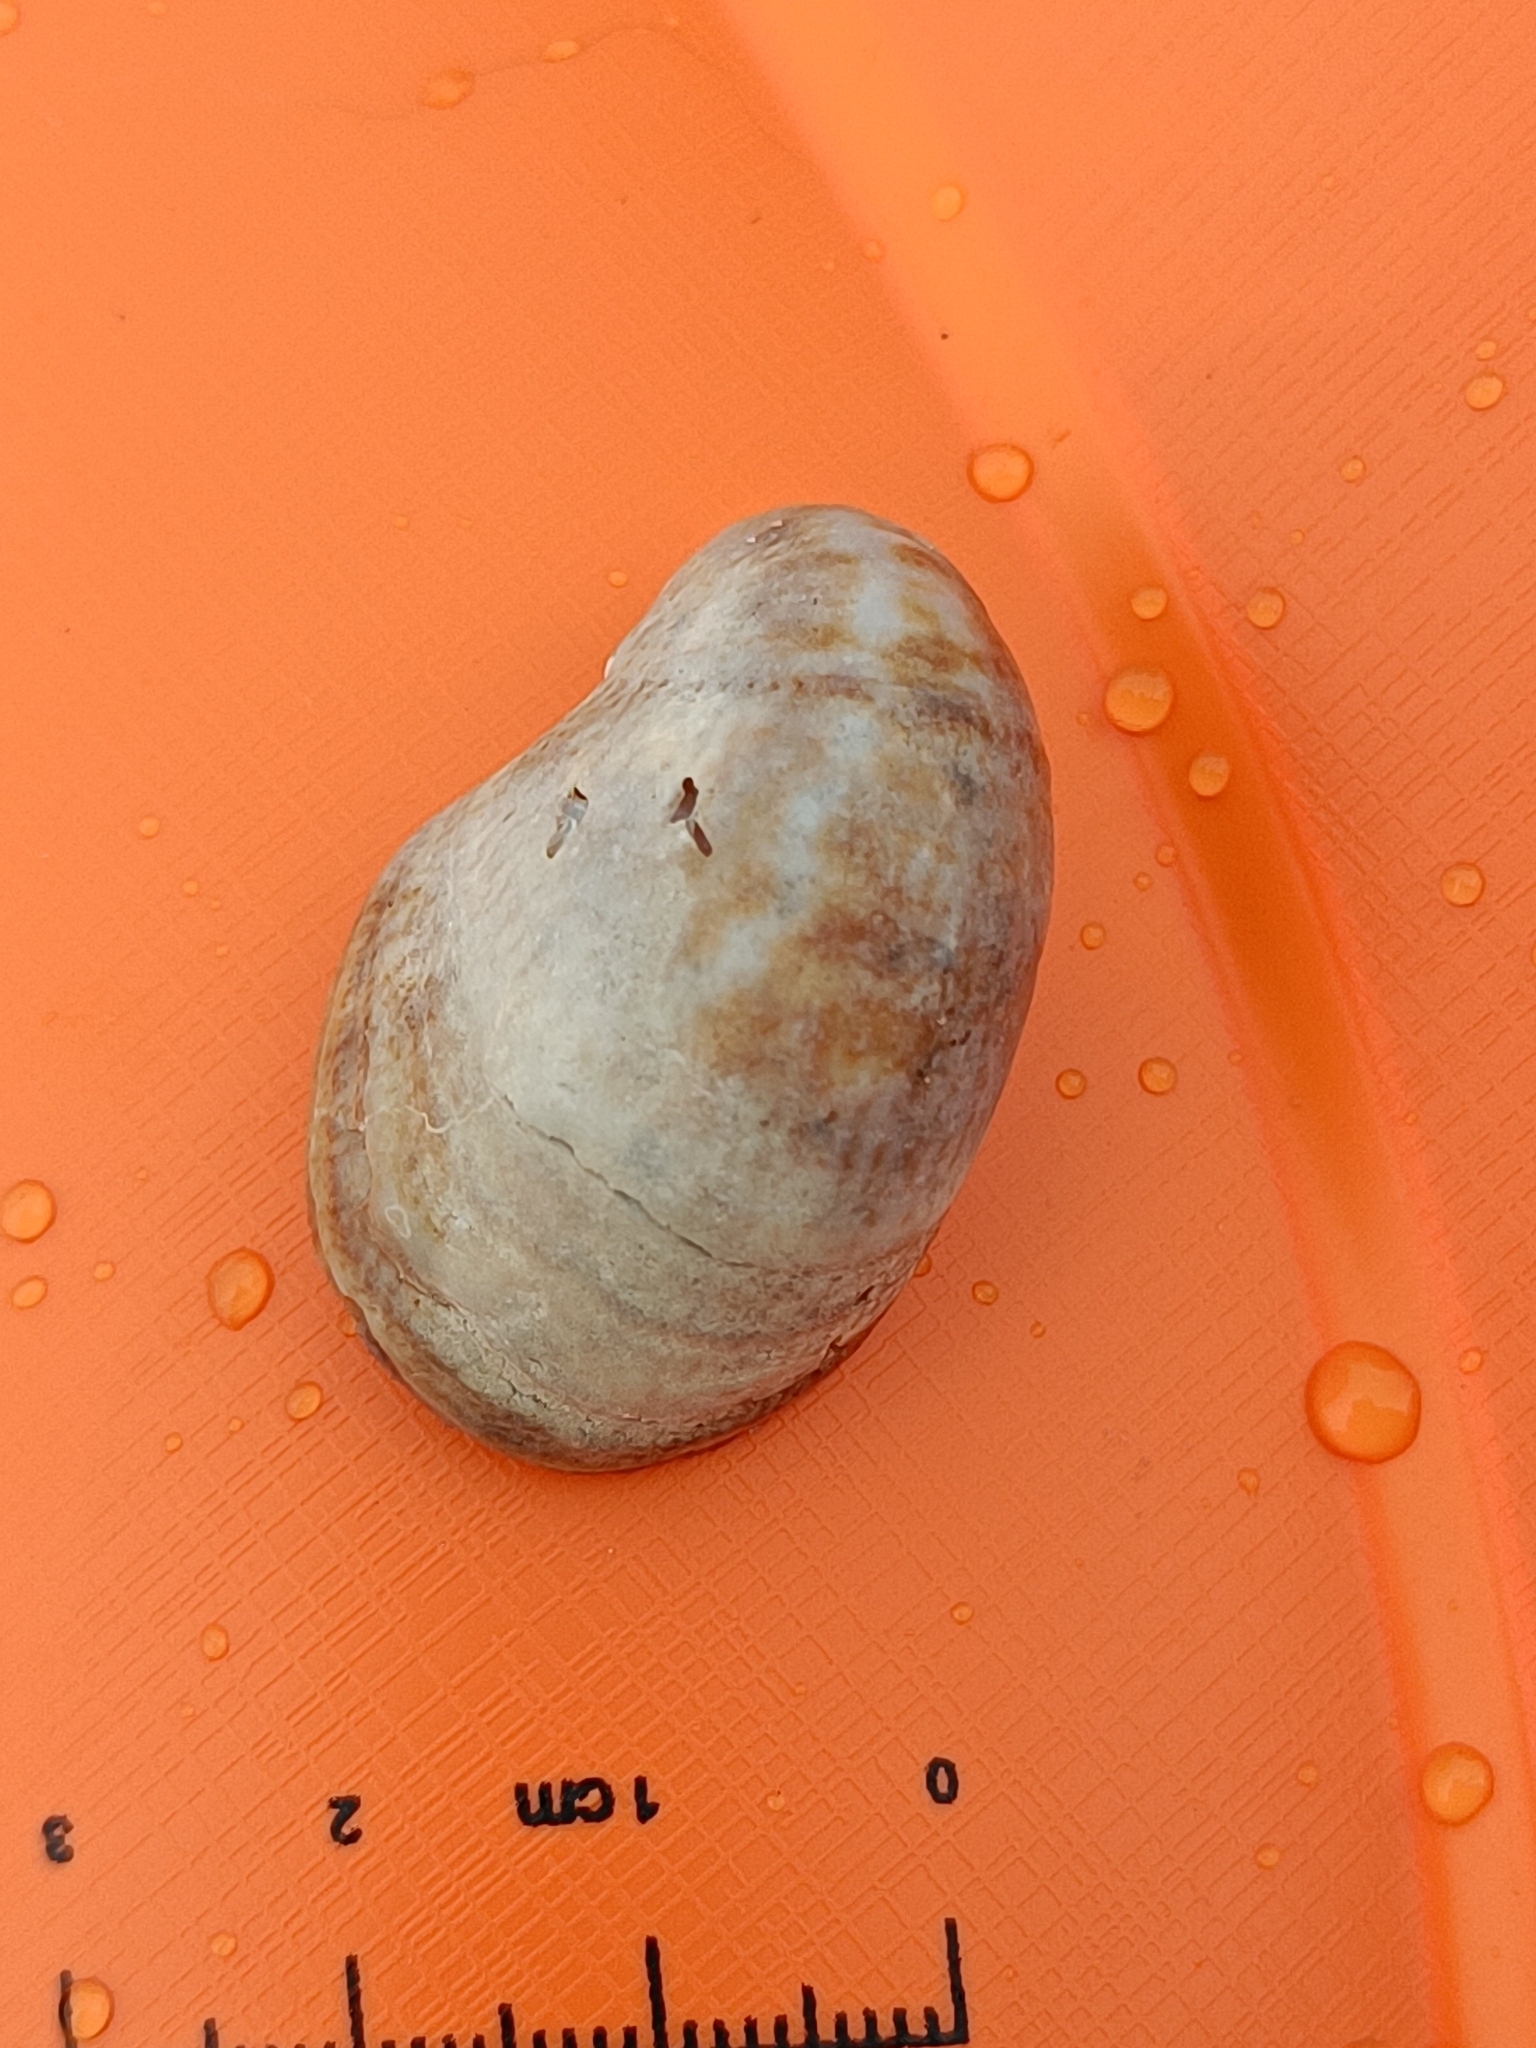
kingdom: Animalia
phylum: Mollusca
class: Gastropoda
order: Littorinimorpha
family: Calyptraeidae
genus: Crepidula
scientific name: Crepidula fornicata
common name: Slipper limpet
